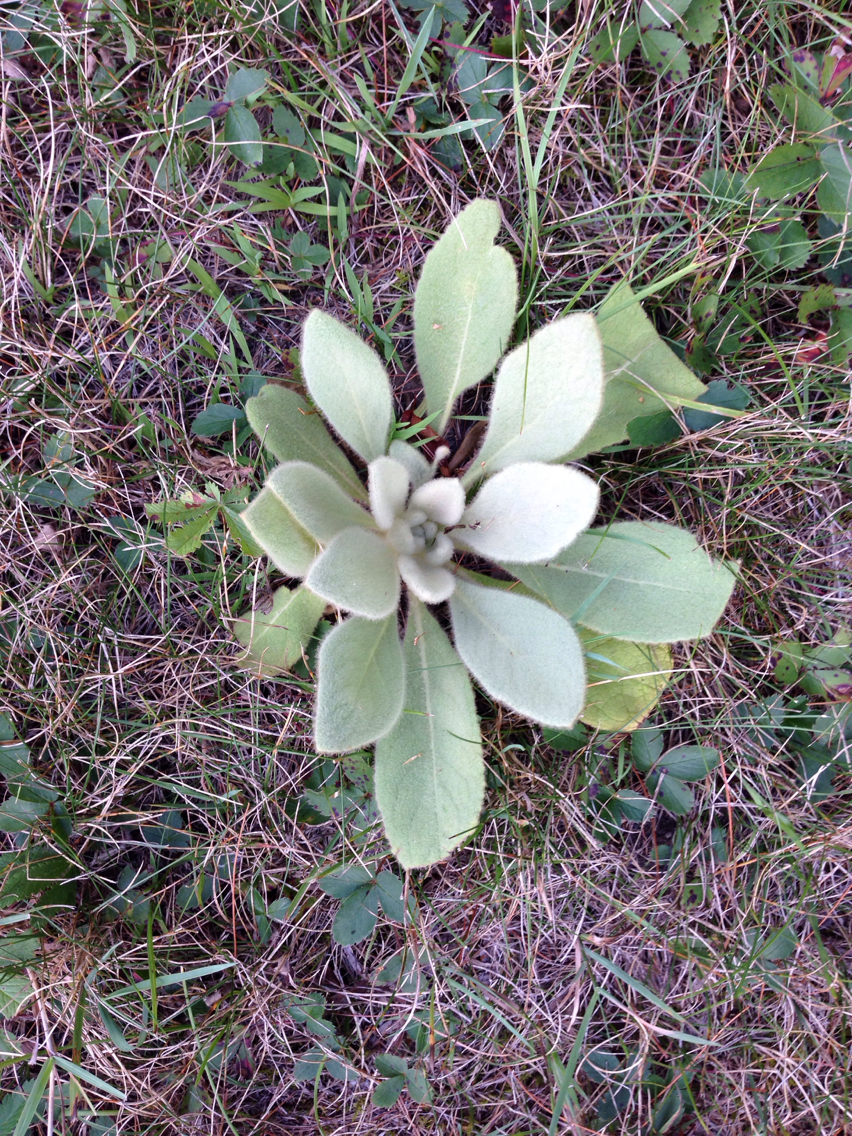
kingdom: Plantae
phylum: Tracheophyta
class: Magnoliopsida
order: Lamiales
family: Scrophulariaceae
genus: Verbascum
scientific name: Verbascum thapsus
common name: Common mullein
